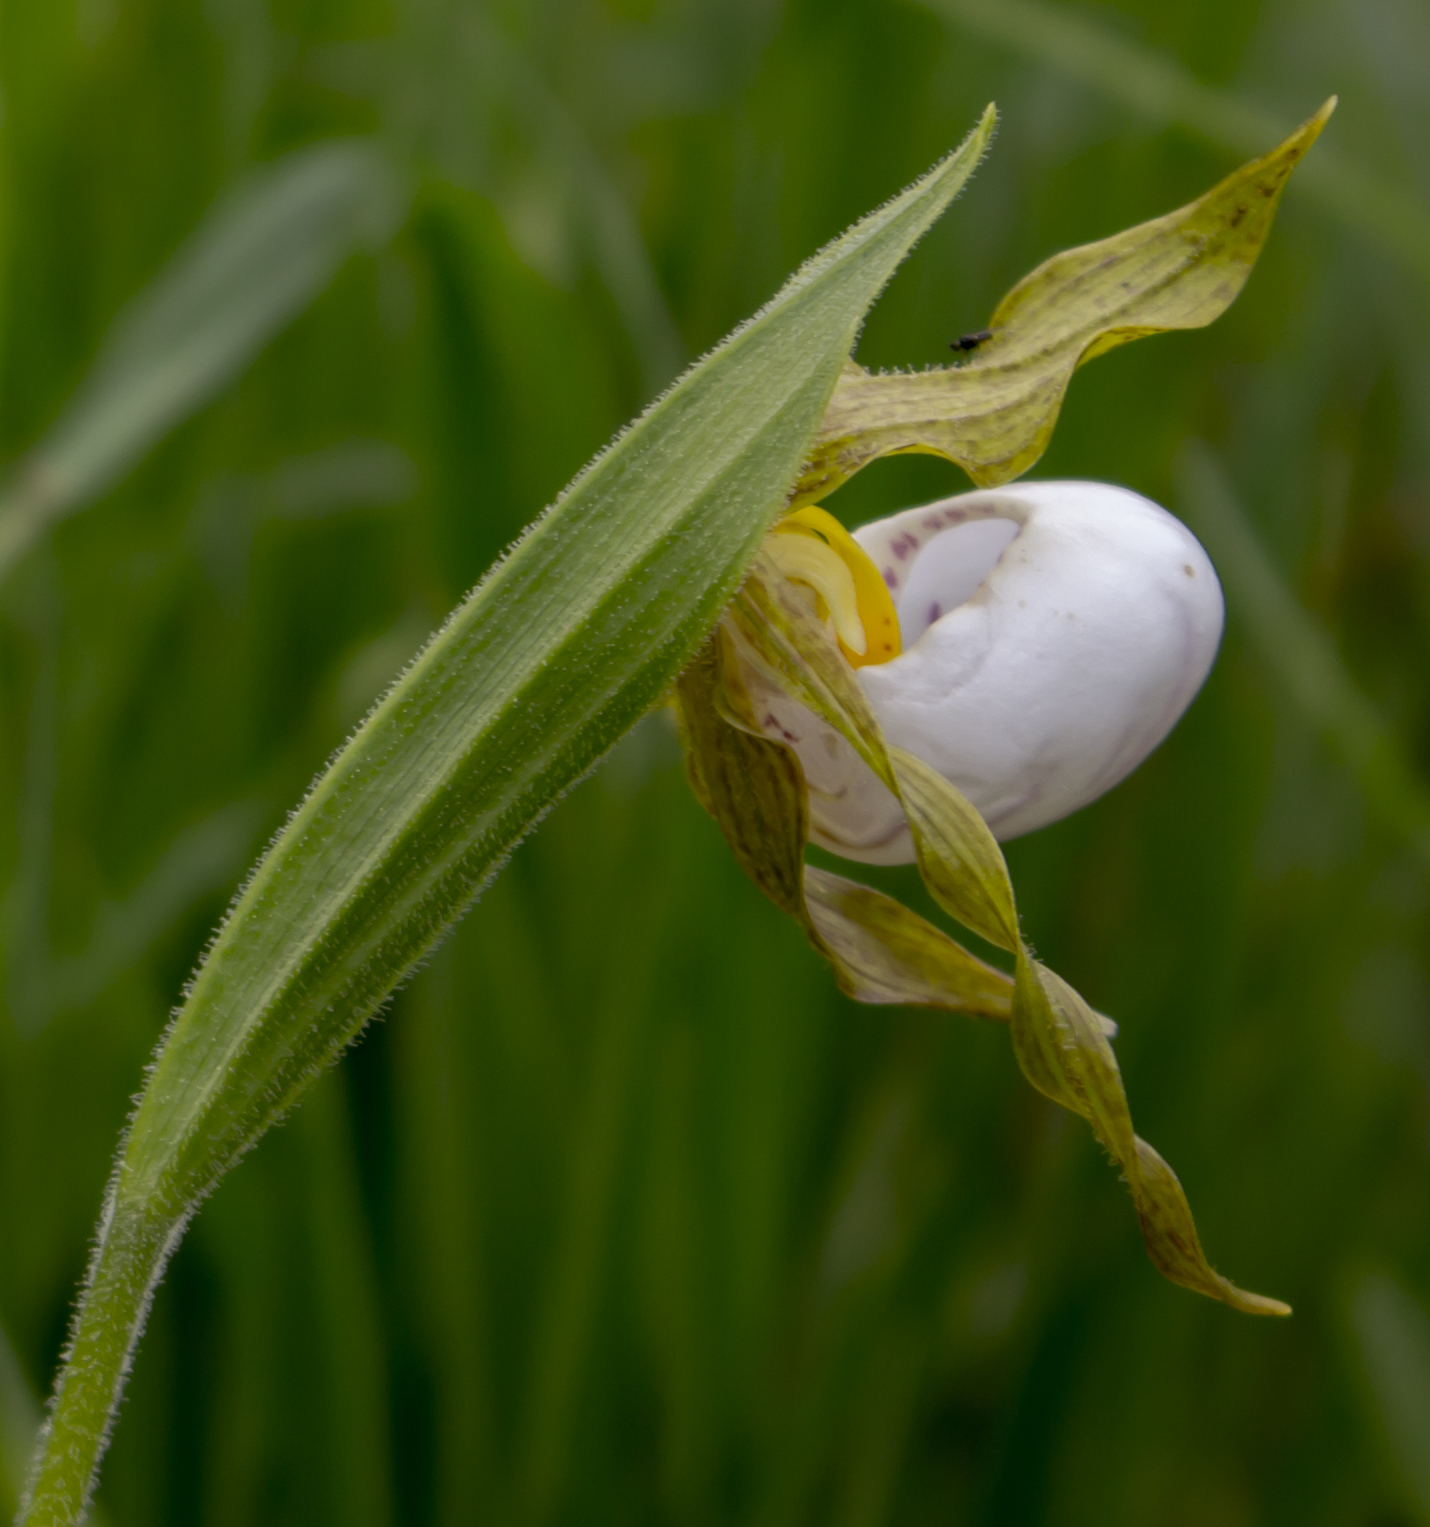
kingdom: Plantae
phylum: Tracheophyta
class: Liliopsida
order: Asparagales
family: Orchidaceae
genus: Cypripedium
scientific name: Cypripedium candidum
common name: White lady's-slipper
